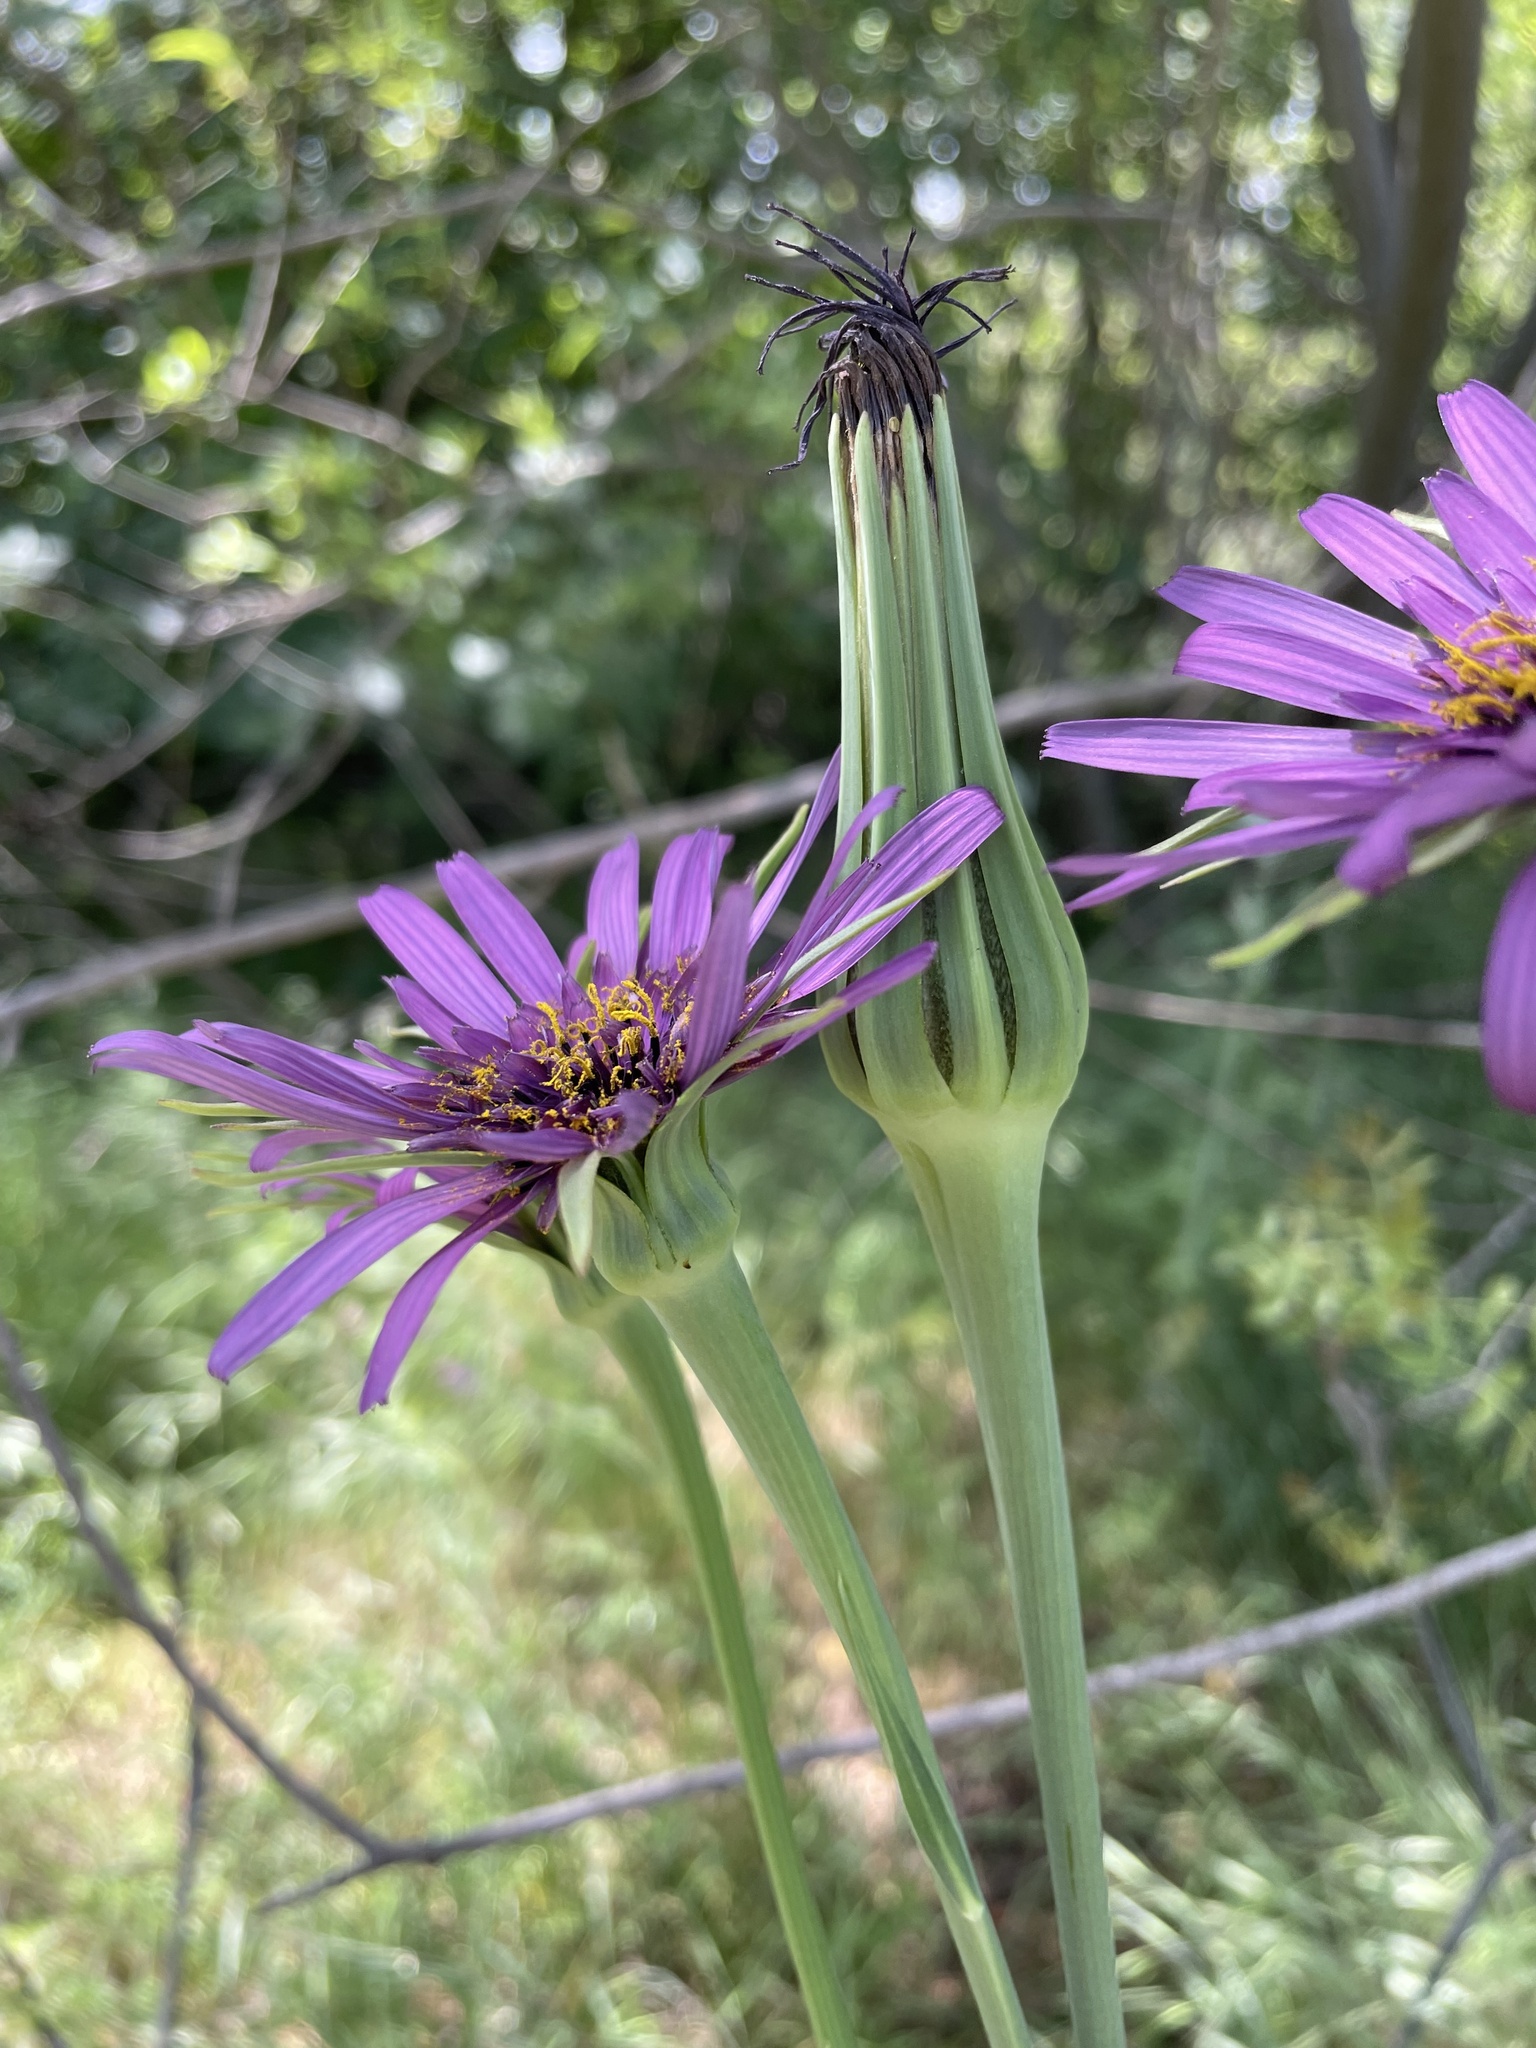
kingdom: Plantae
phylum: Tracheophyta
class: Magnoliopsida
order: Asterales
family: Asteraceae
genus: Tragopogon
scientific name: Tragopogon porrifolius
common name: Salsify
